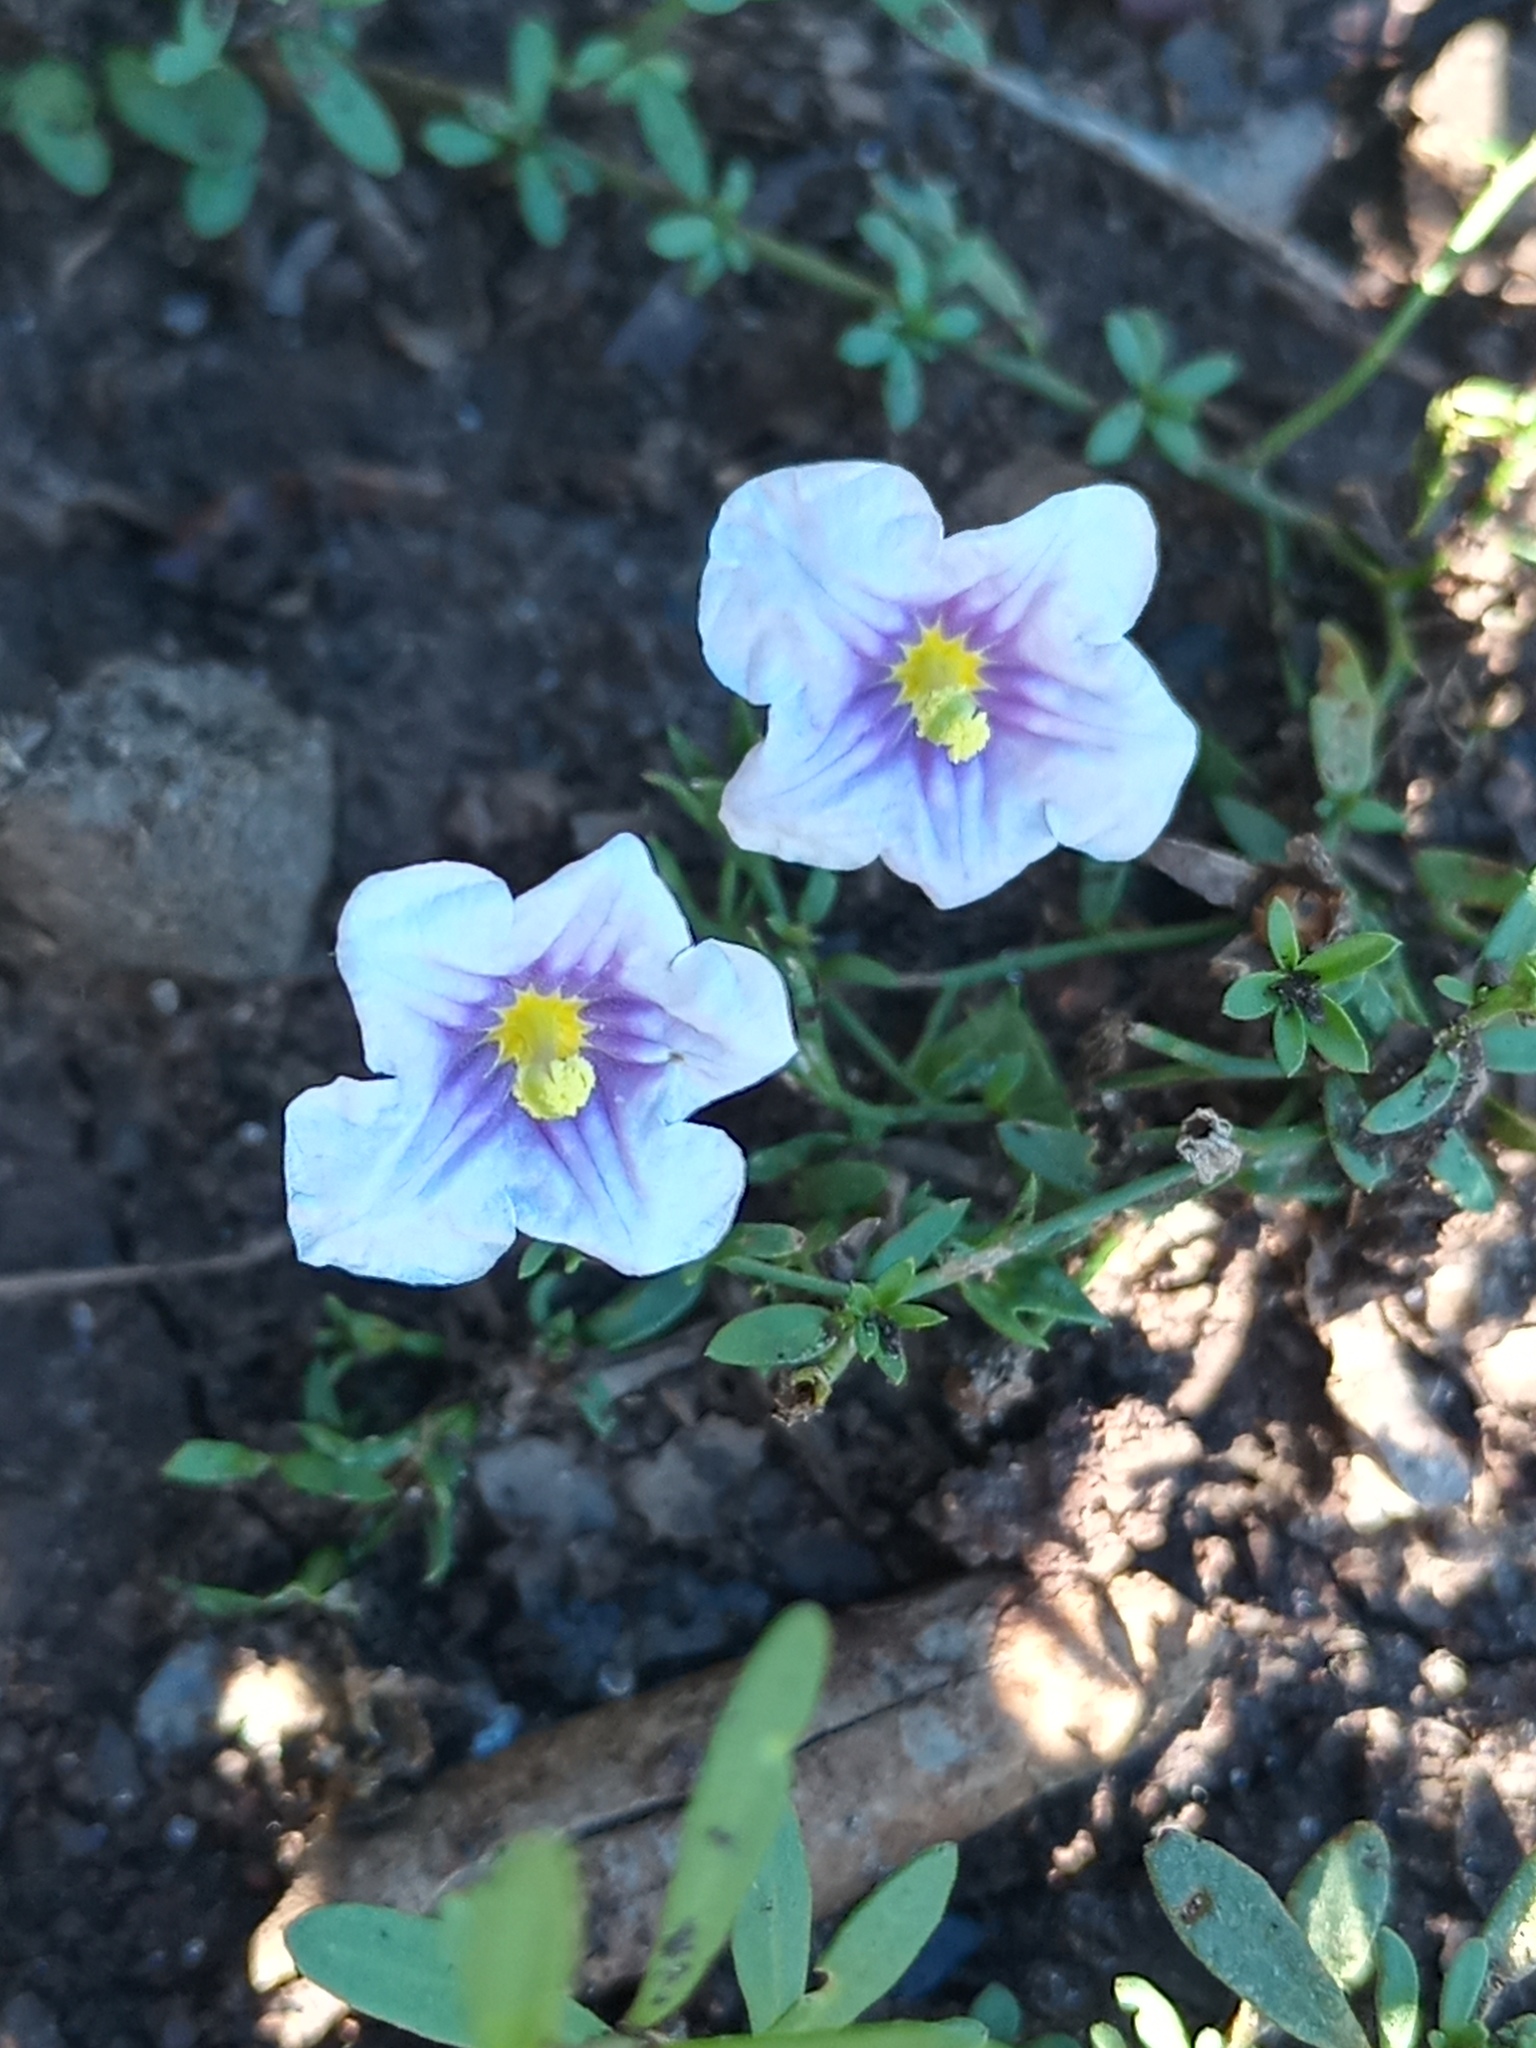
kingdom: Plantae
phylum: Tracheophyta
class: Magnoliopsida
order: Solanales
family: Solanaceae
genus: Nierembergia
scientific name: Nierembergia linariifolia
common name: Dwarf cupflower
